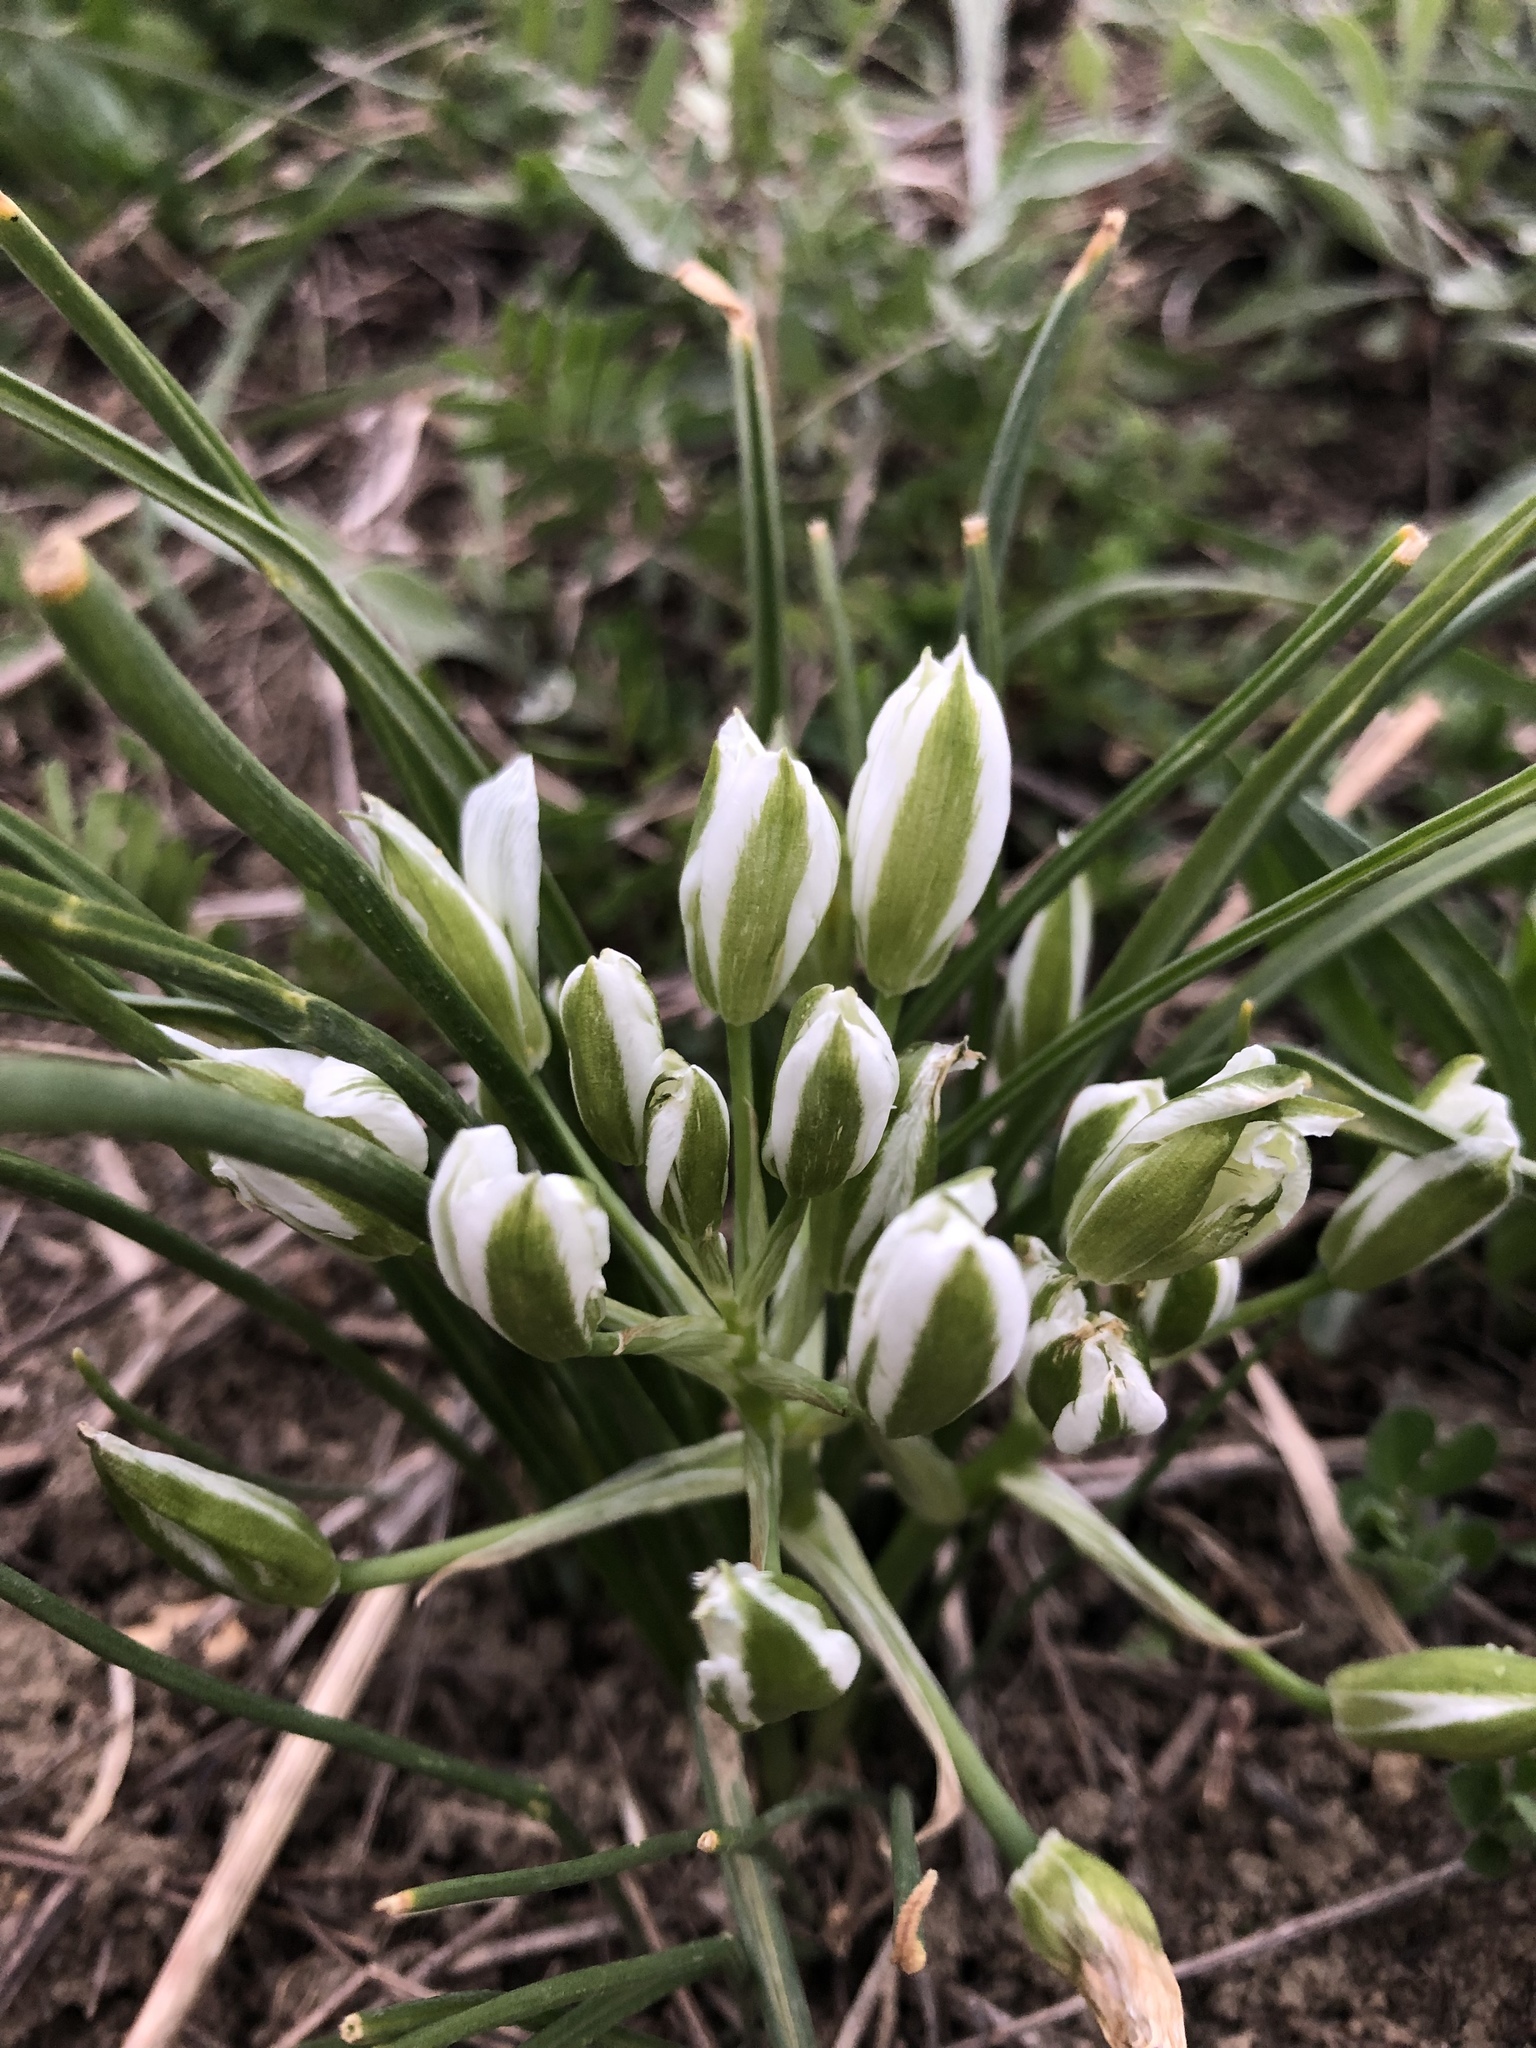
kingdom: Plantae
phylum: Tracheophyta
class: Liliopsida
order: Asparagales
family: Asparagaceae
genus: Ornithogalum
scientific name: Ornithogalum umbellatum
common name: Garden star-of-bethlehem
